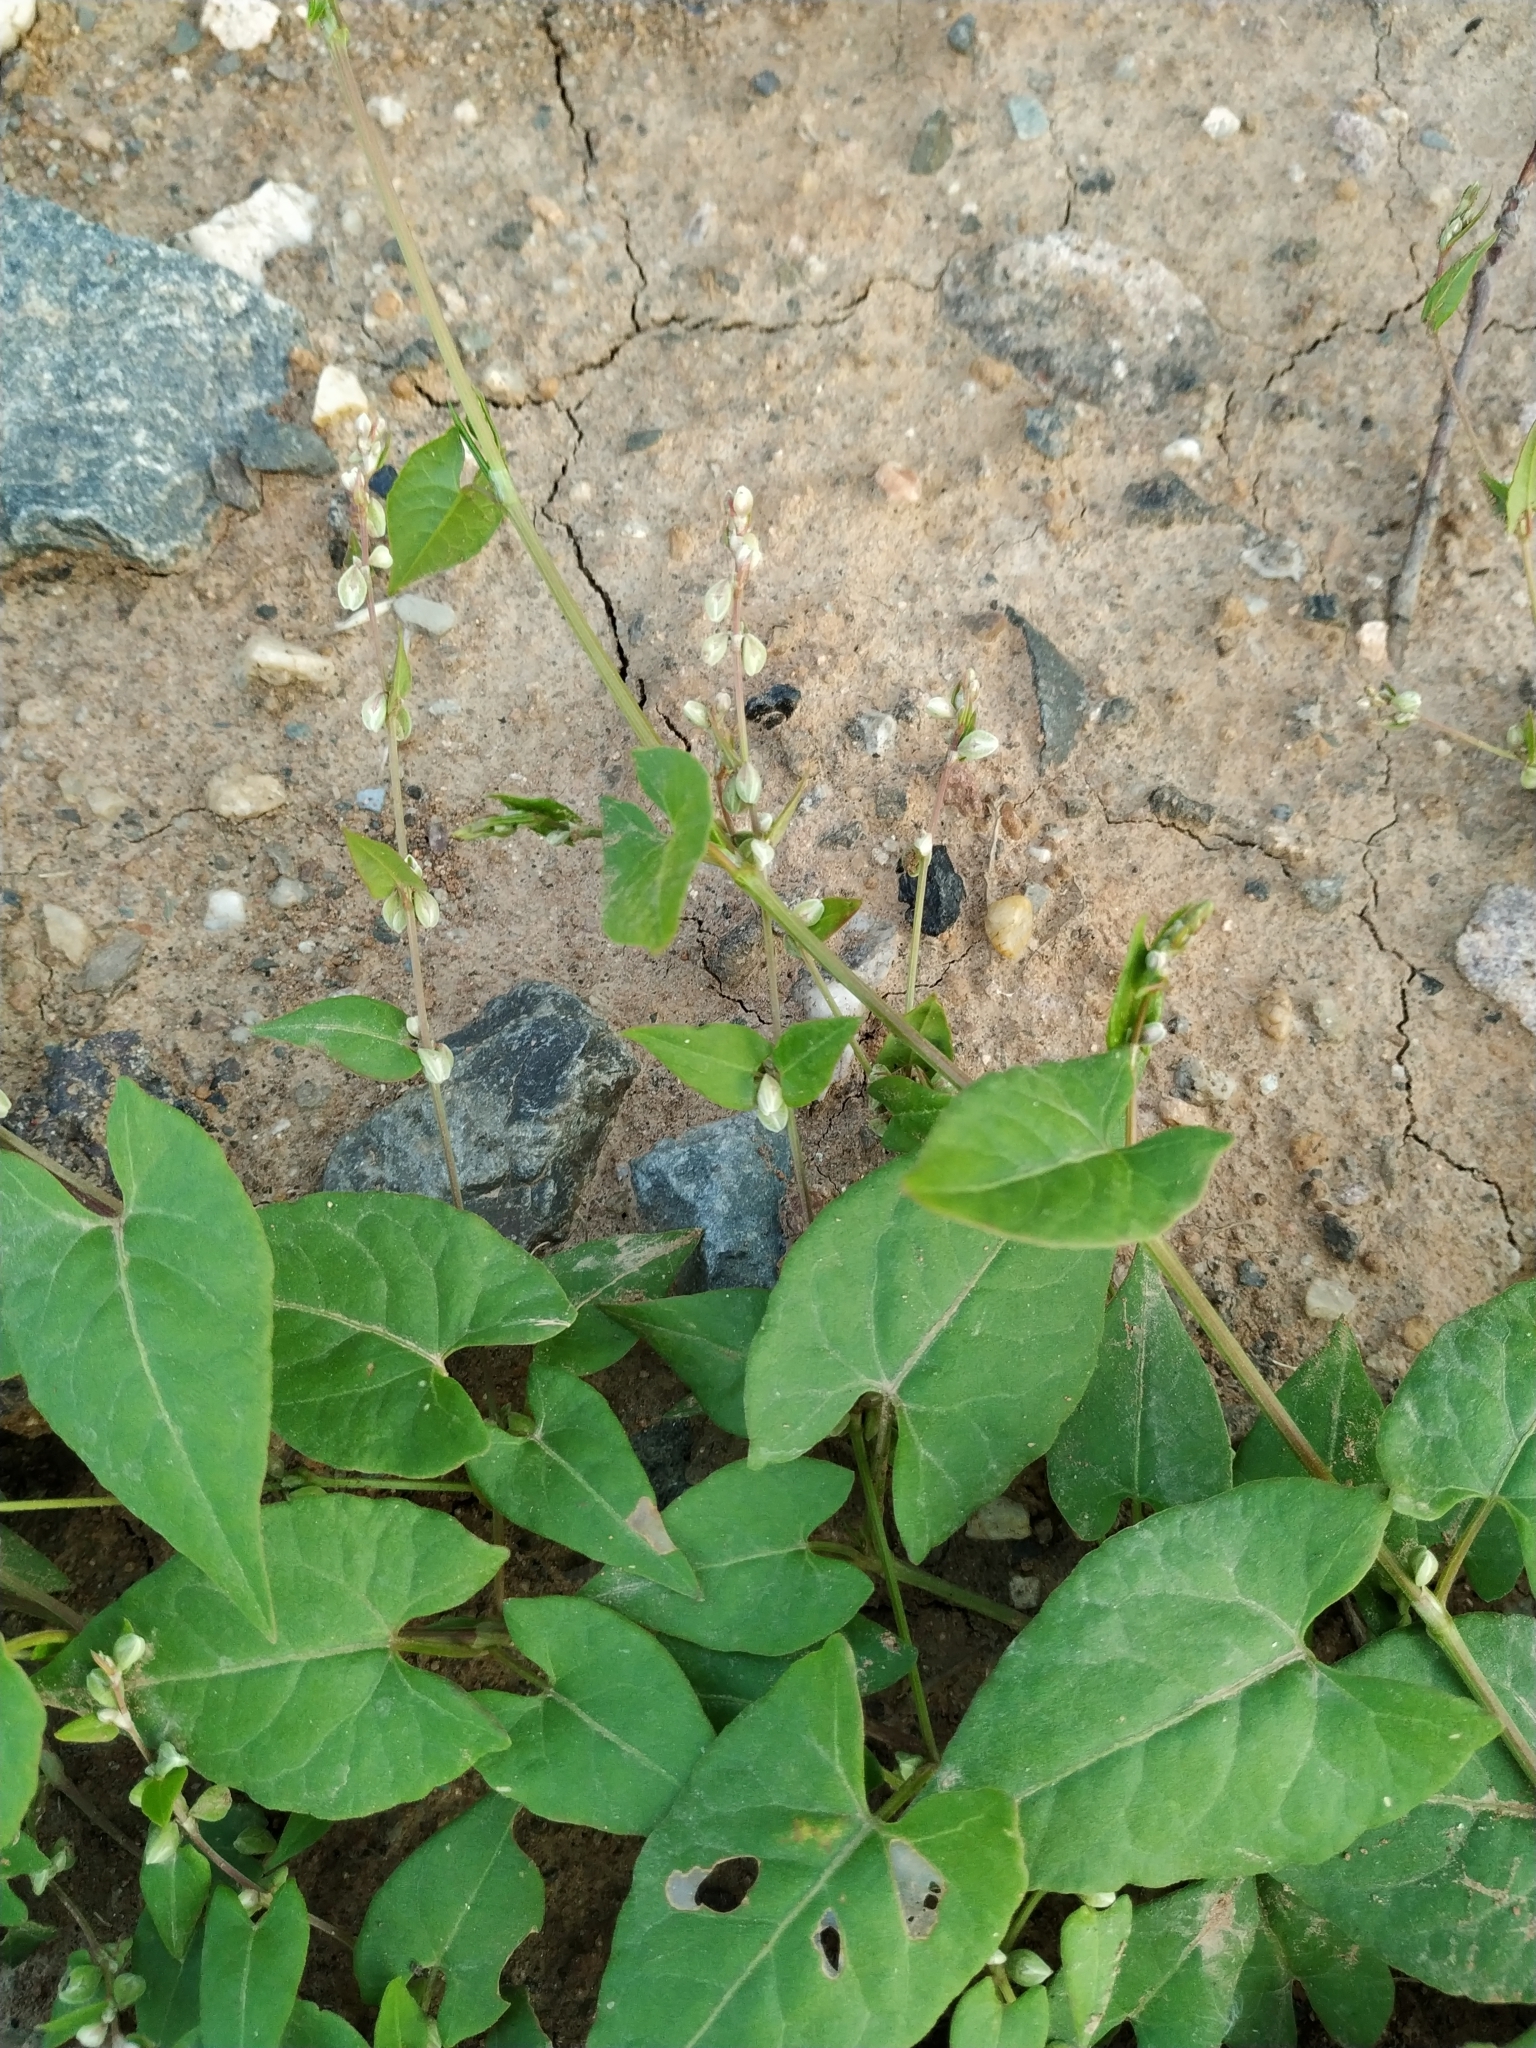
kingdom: Plantae
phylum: Tracheophyta
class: Magnoliopsida
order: Caryophyllales
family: Polygonaceae
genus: Fallopia
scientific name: Fallopia convolvulus
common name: Black bindweed
